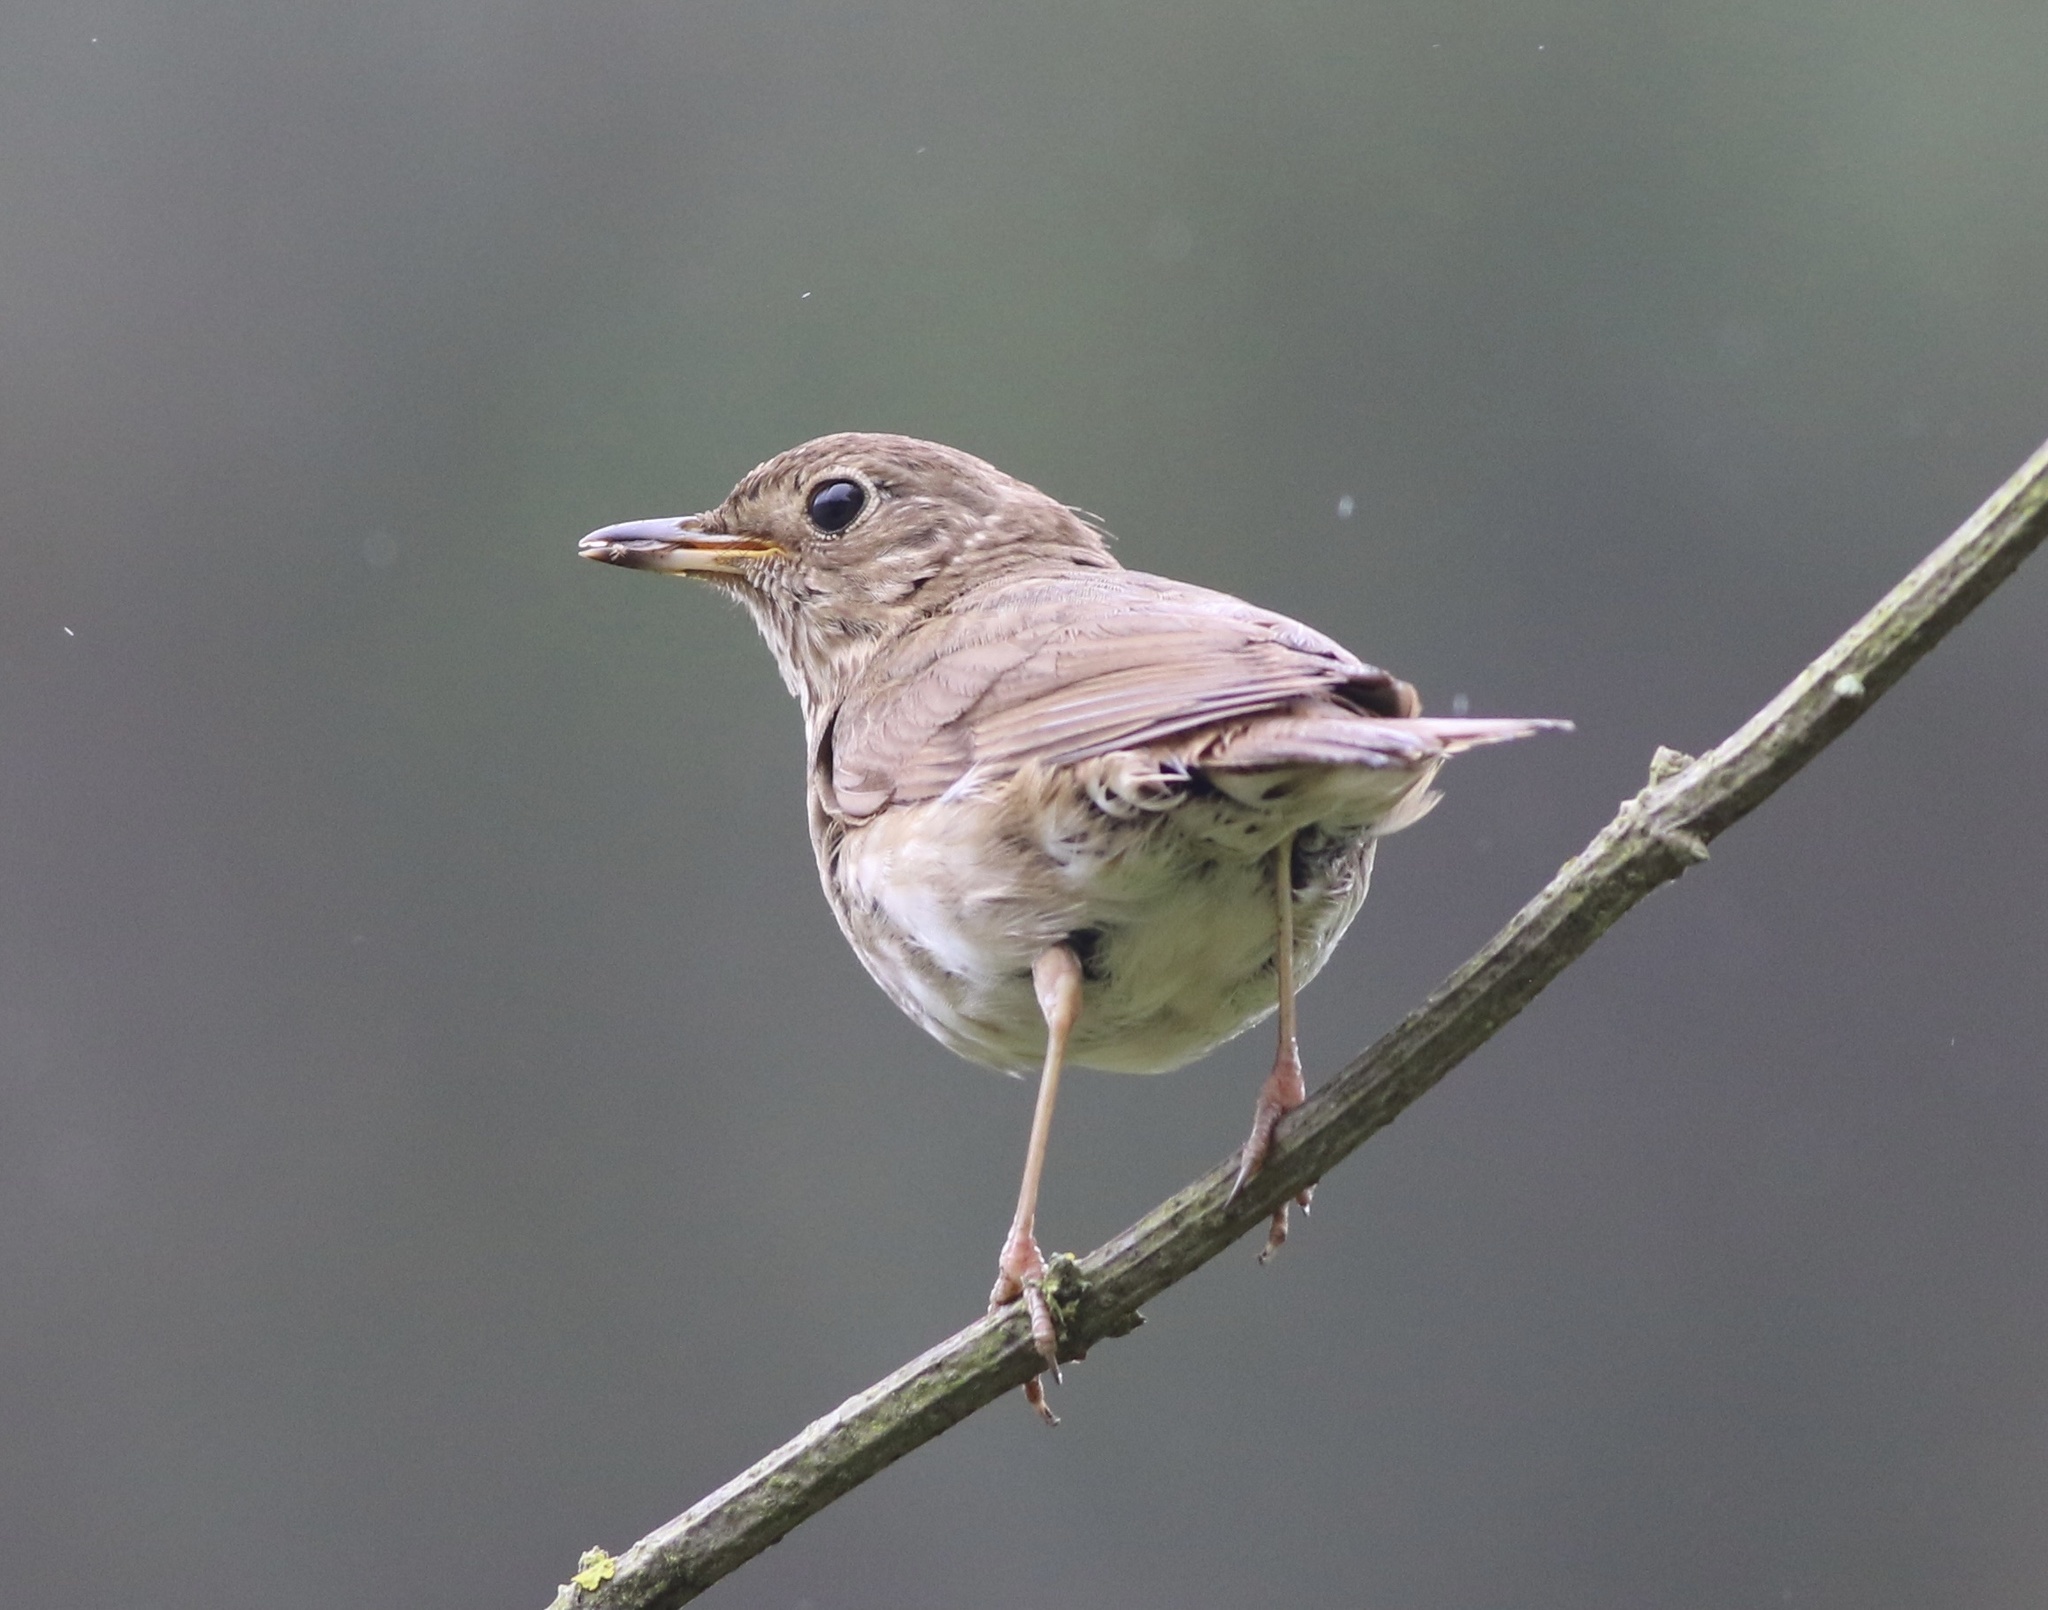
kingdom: Animalia
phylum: Chordata
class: Aves
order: Passeriformes
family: Turdidae
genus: Catharus
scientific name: Catharus ustulatus
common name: Swainson's thrush
